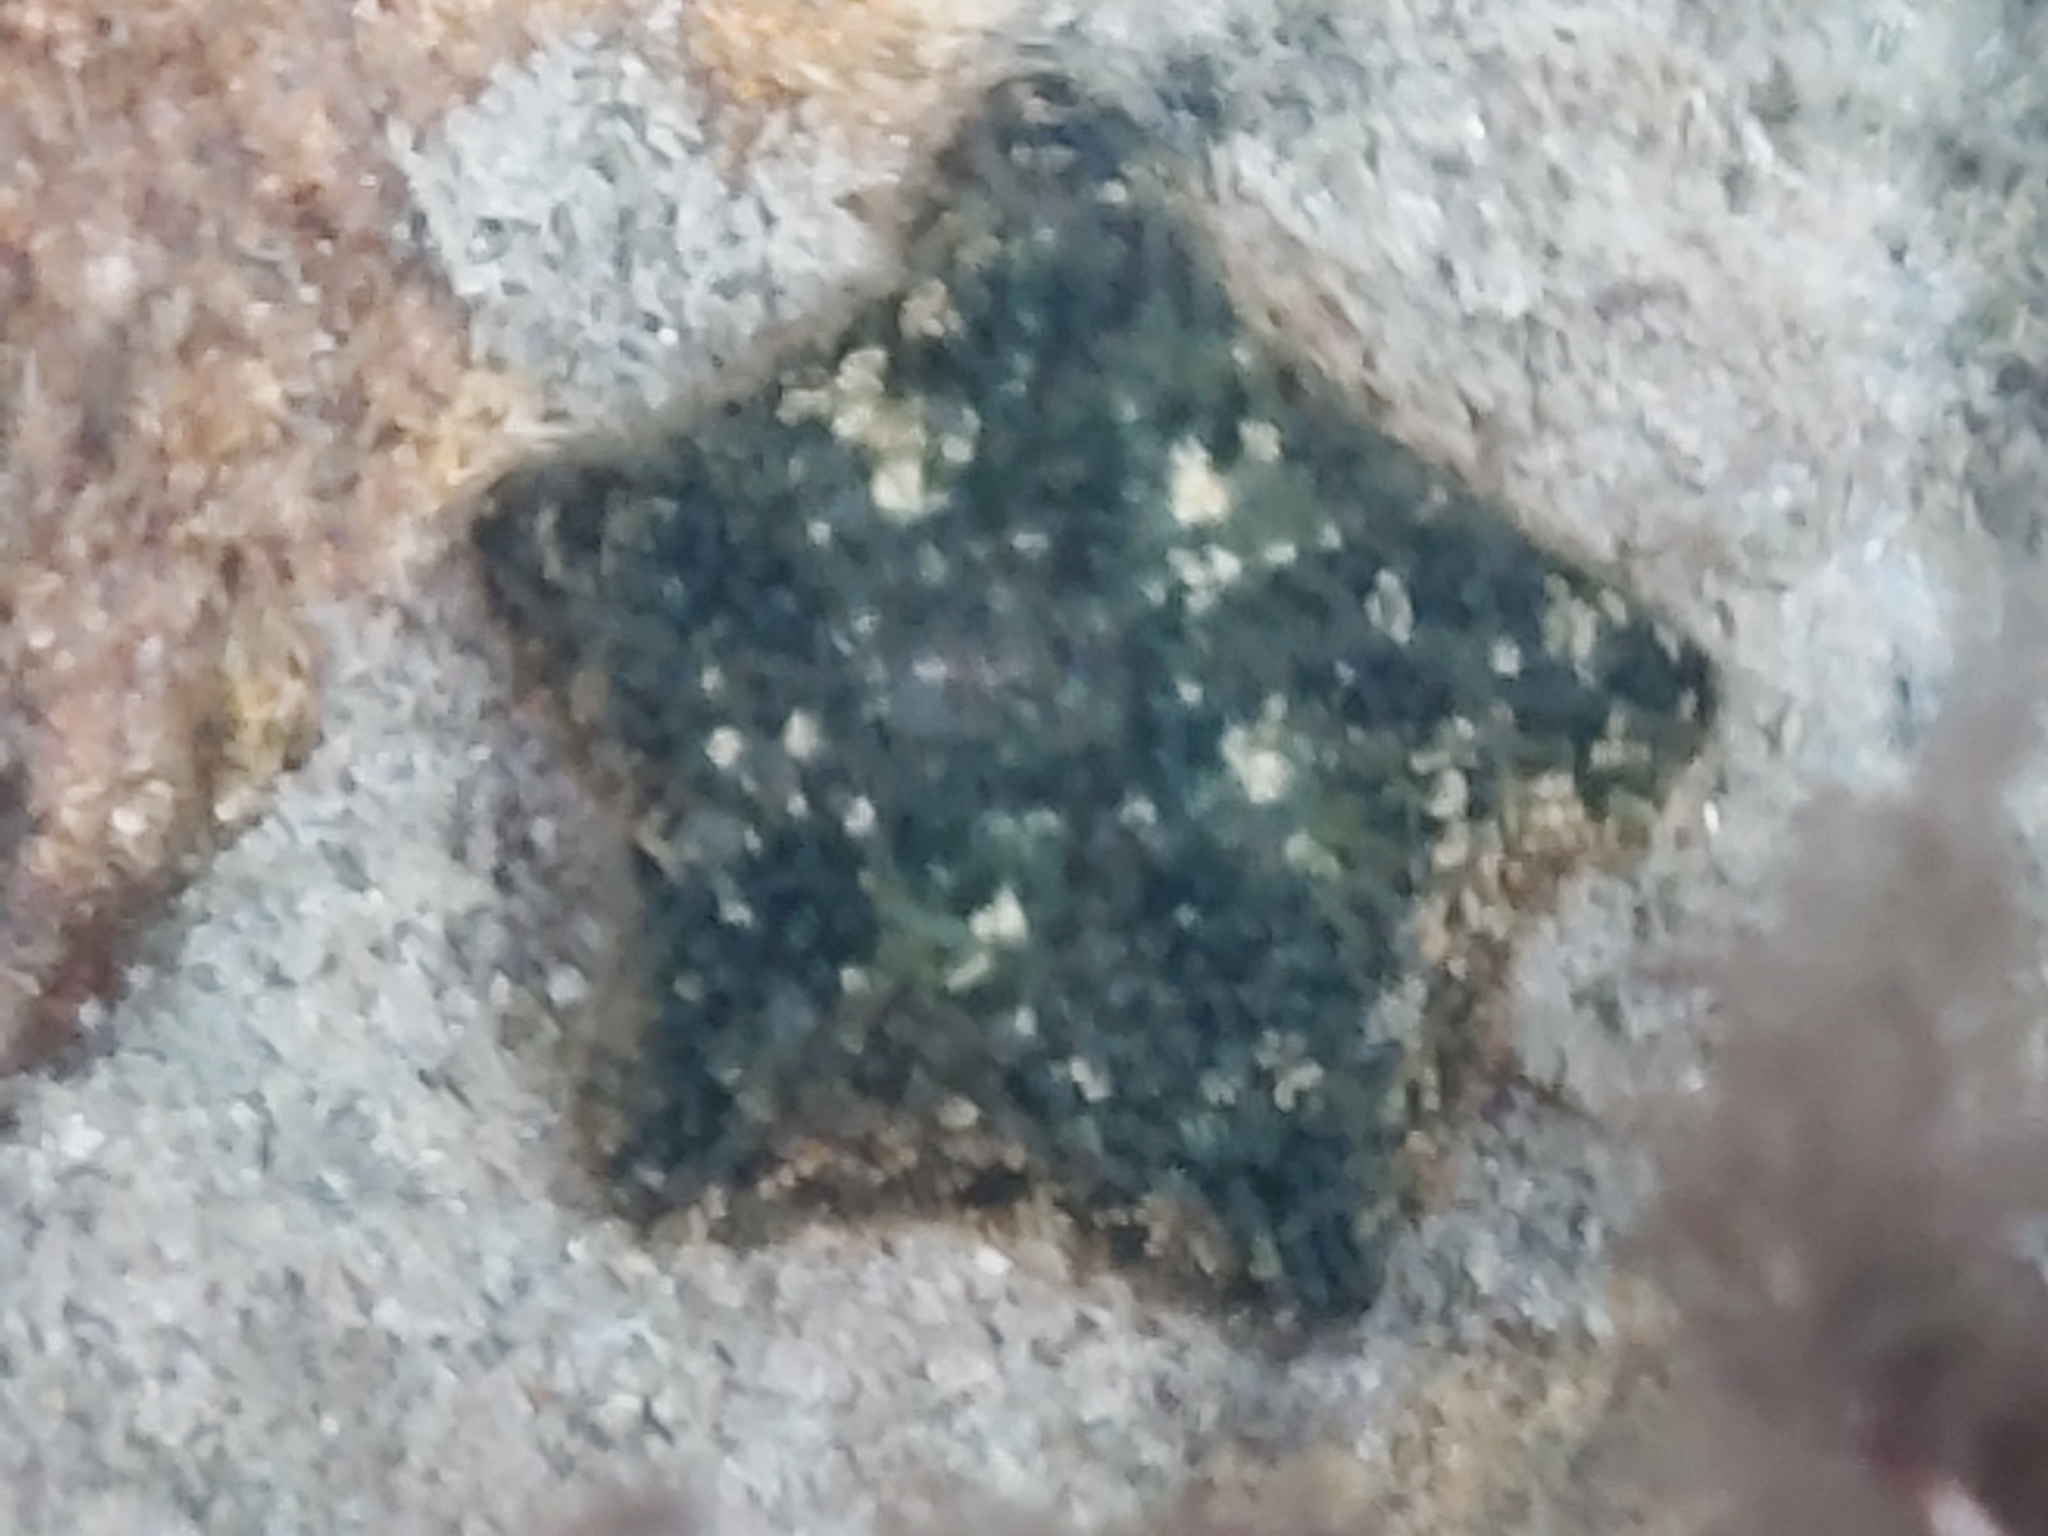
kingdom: Animalia
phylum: Echinodermata
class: Asteroidea
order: Valvatida
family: Asterinidae
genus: Parvulastra
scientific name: Parvulastra exigua
